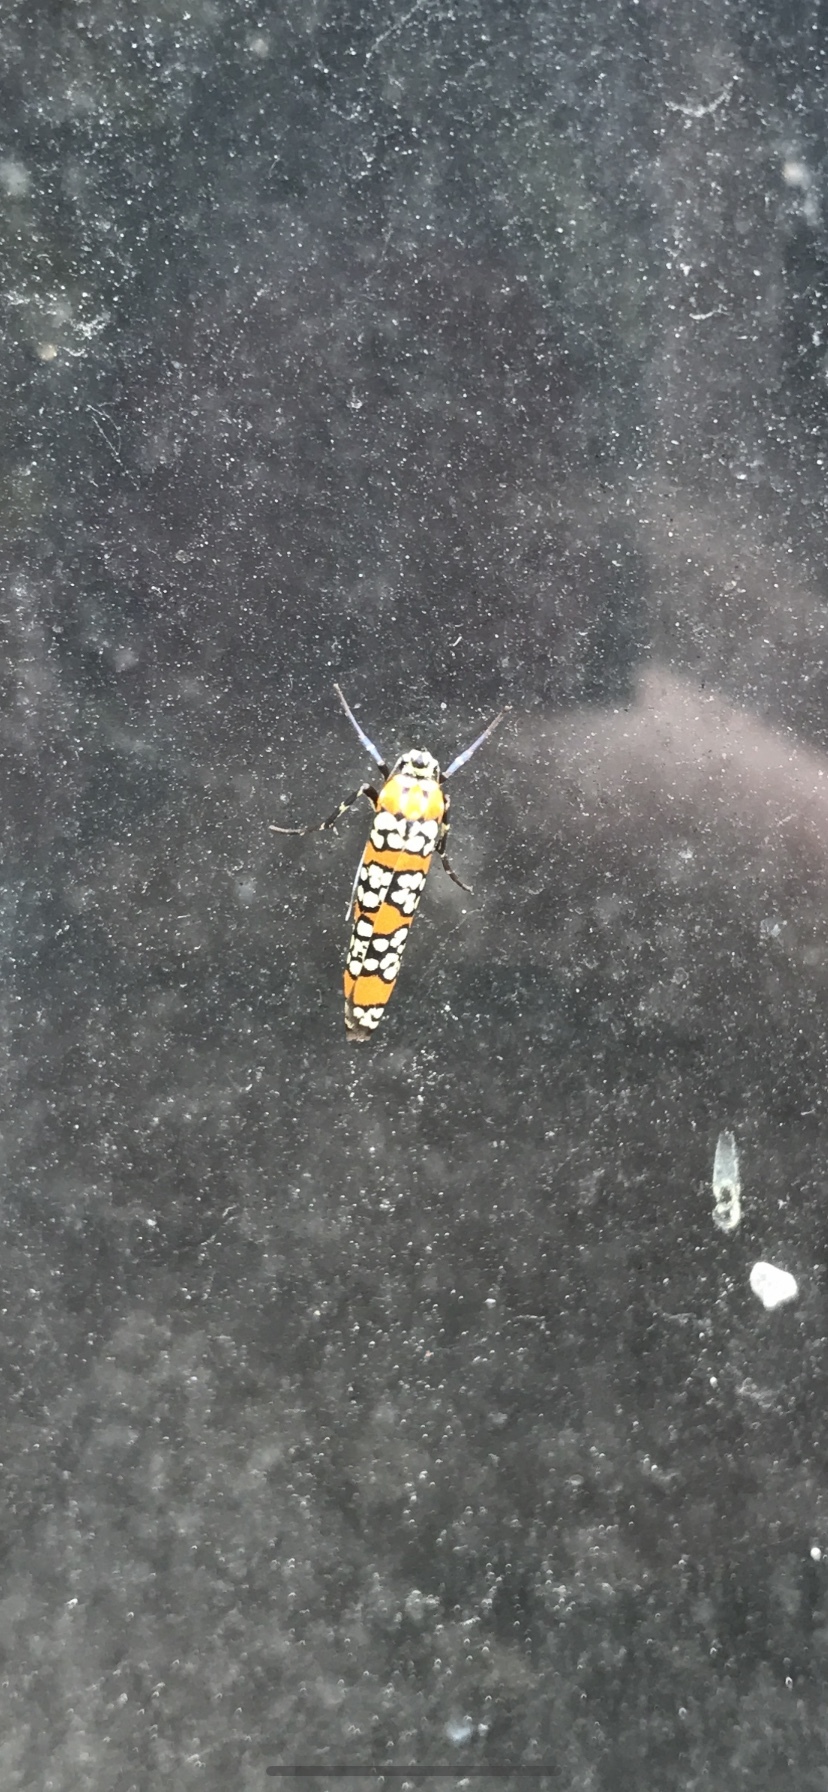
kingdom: Animalia
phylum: Arthropoda
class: Insecta
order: Lepidoptera
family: Attevidae
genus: Atteva
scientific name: Atteva punctella
